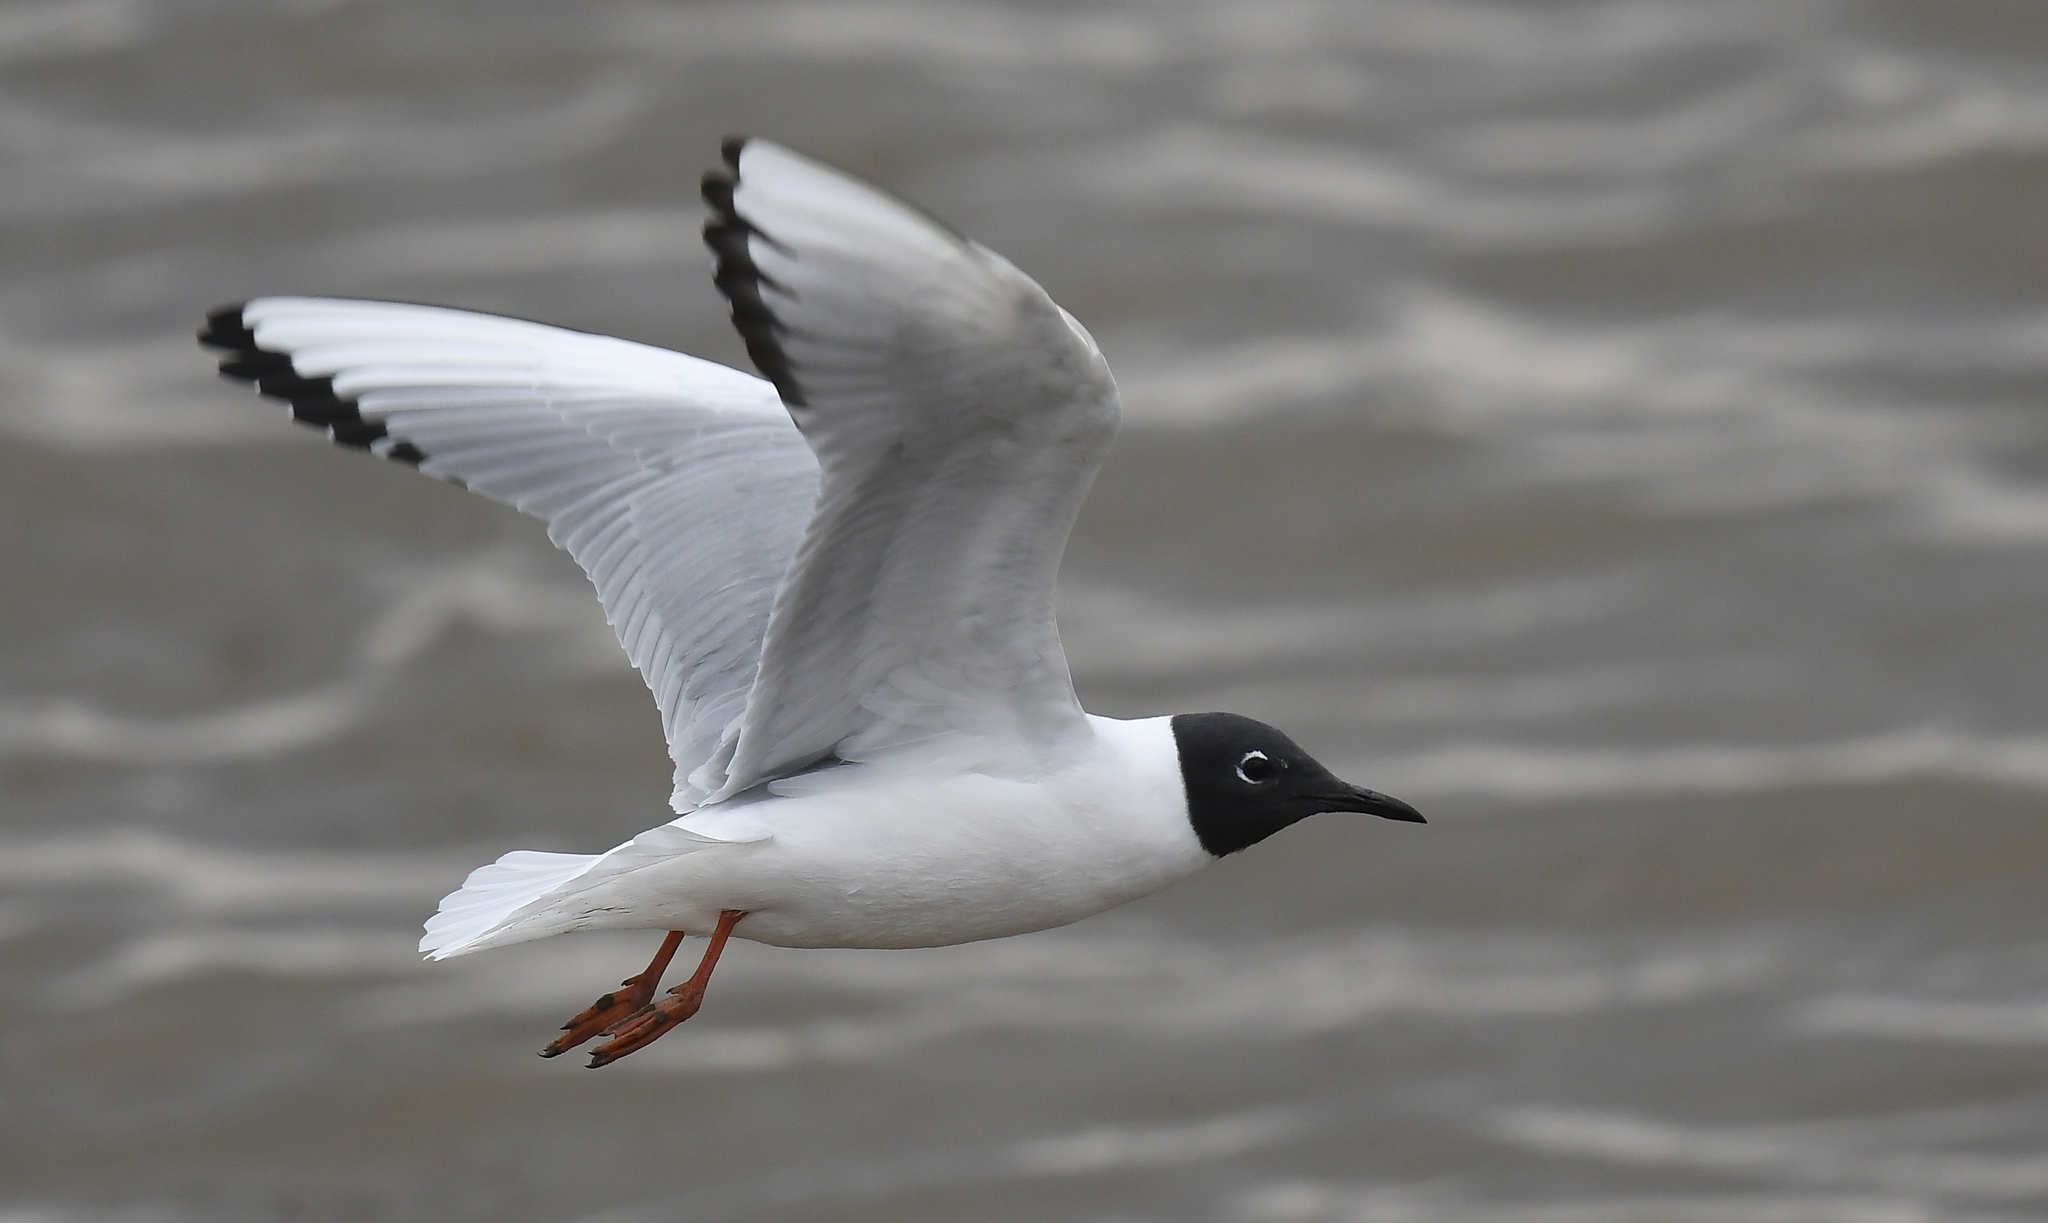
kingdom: Animalia
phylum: Chordata
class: Aves
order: Charadriiformes
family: Laridae
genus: Chroicocephalus
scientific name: Chroicocephalus philadelphia
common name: Bonaparte's gull
